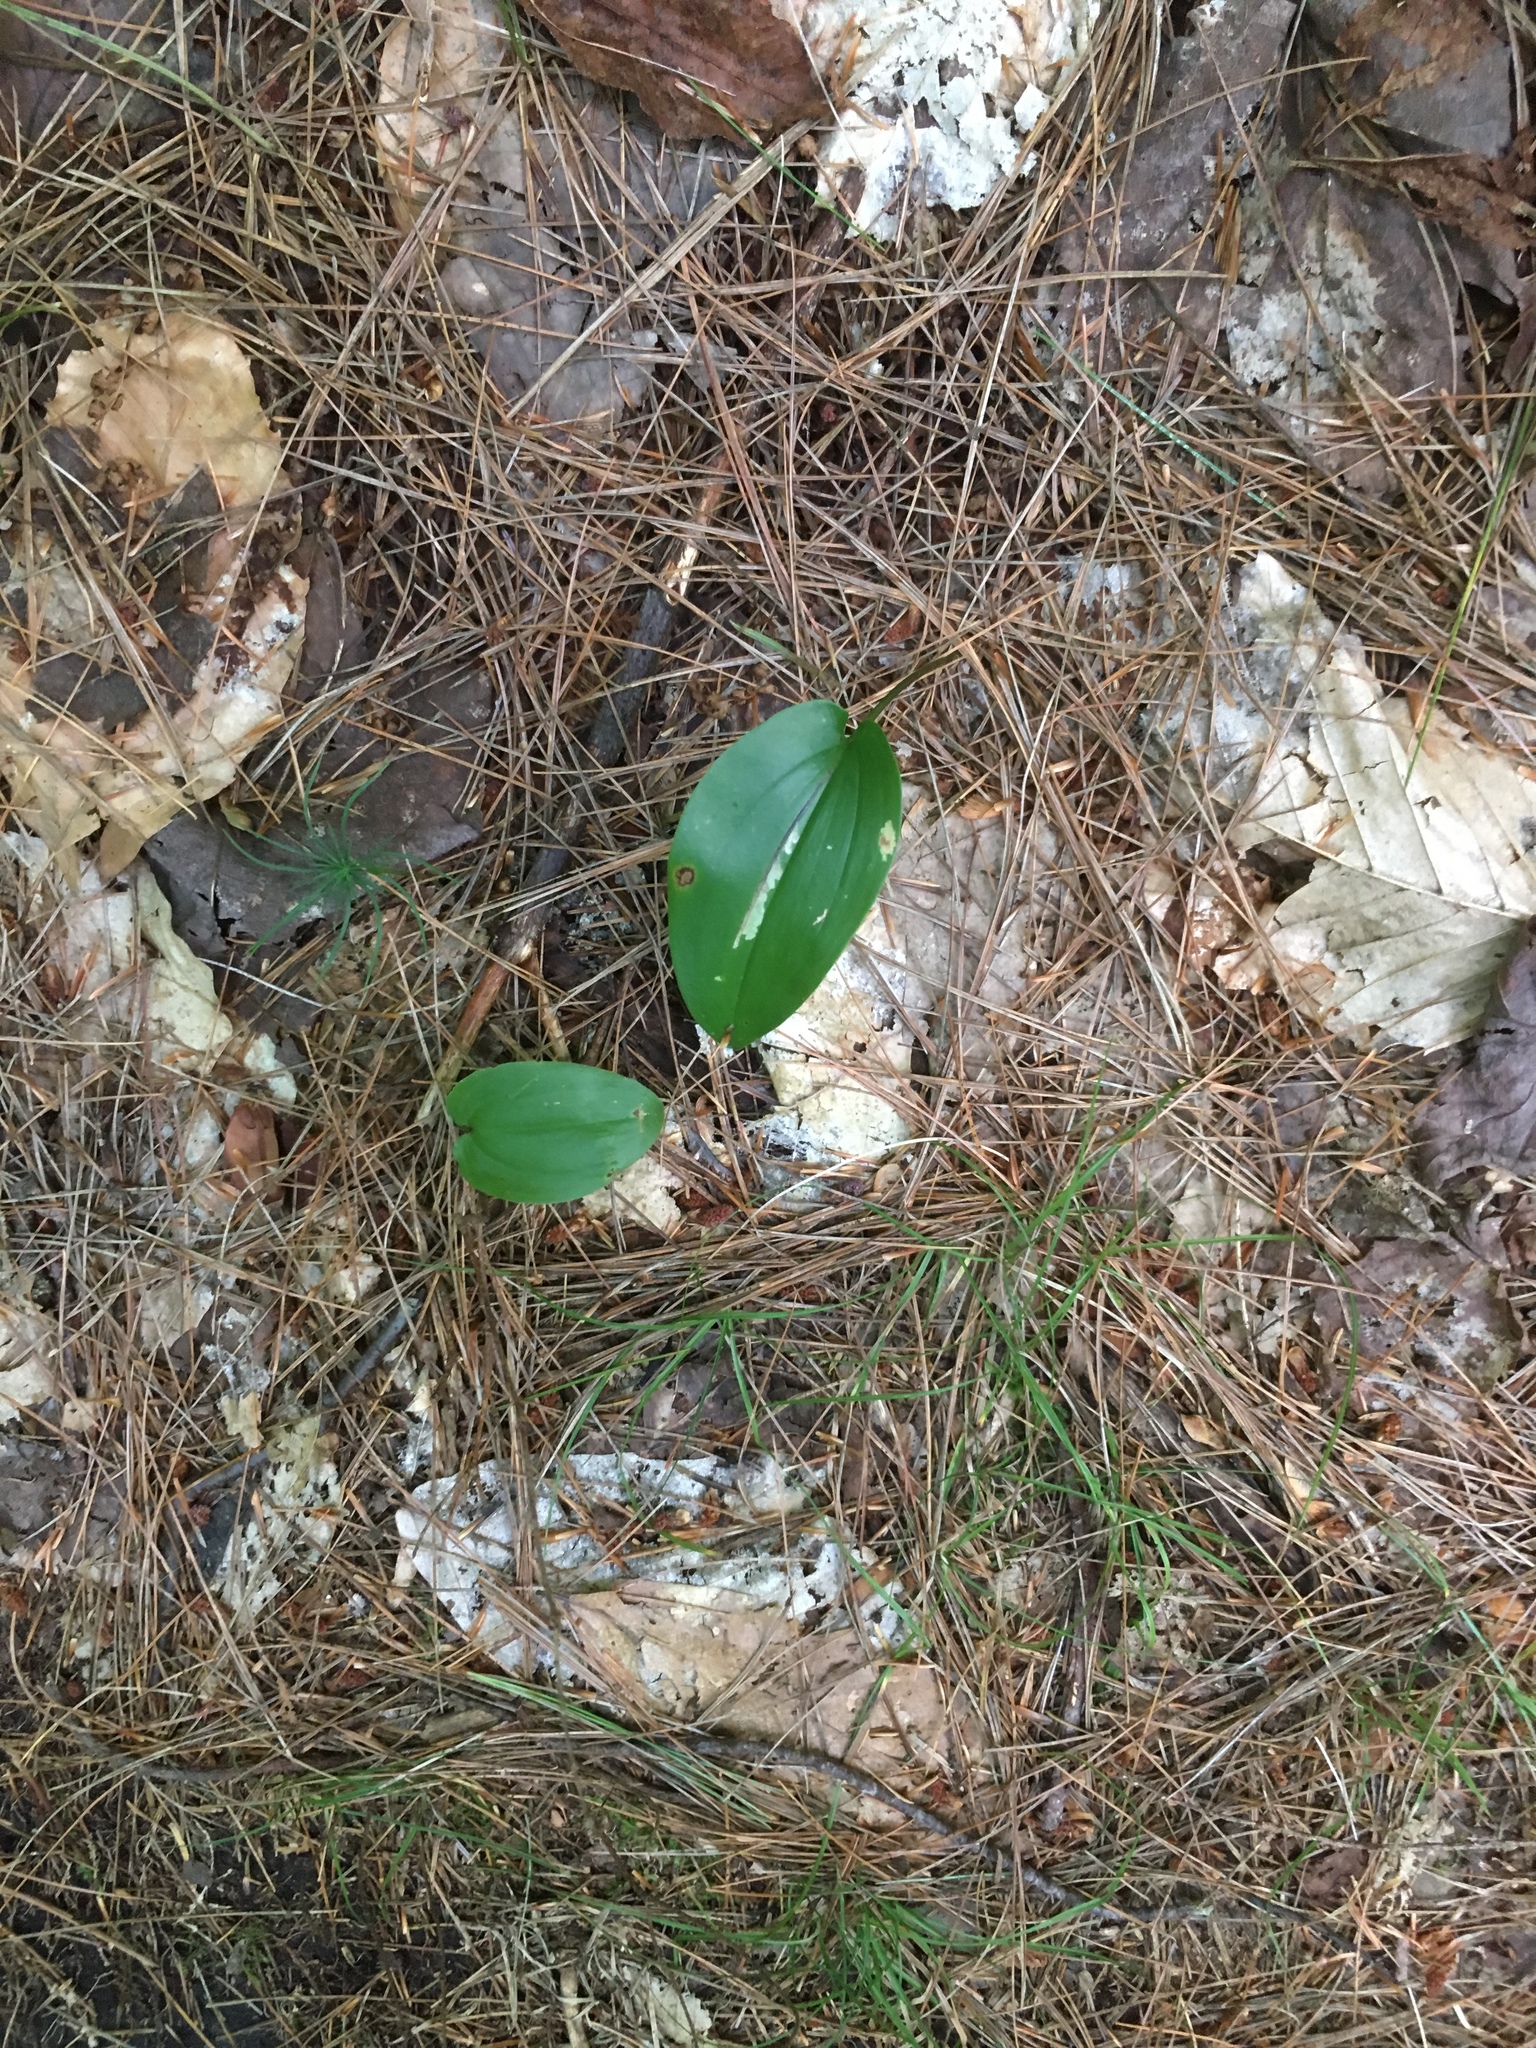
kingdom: Plantae
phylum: Tracheophyta
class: Liliopsida
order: Asparagales
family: Asparagaceae
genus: Maianthemum
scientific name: Maianthemum canadense
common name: False lily-of-the-valley
